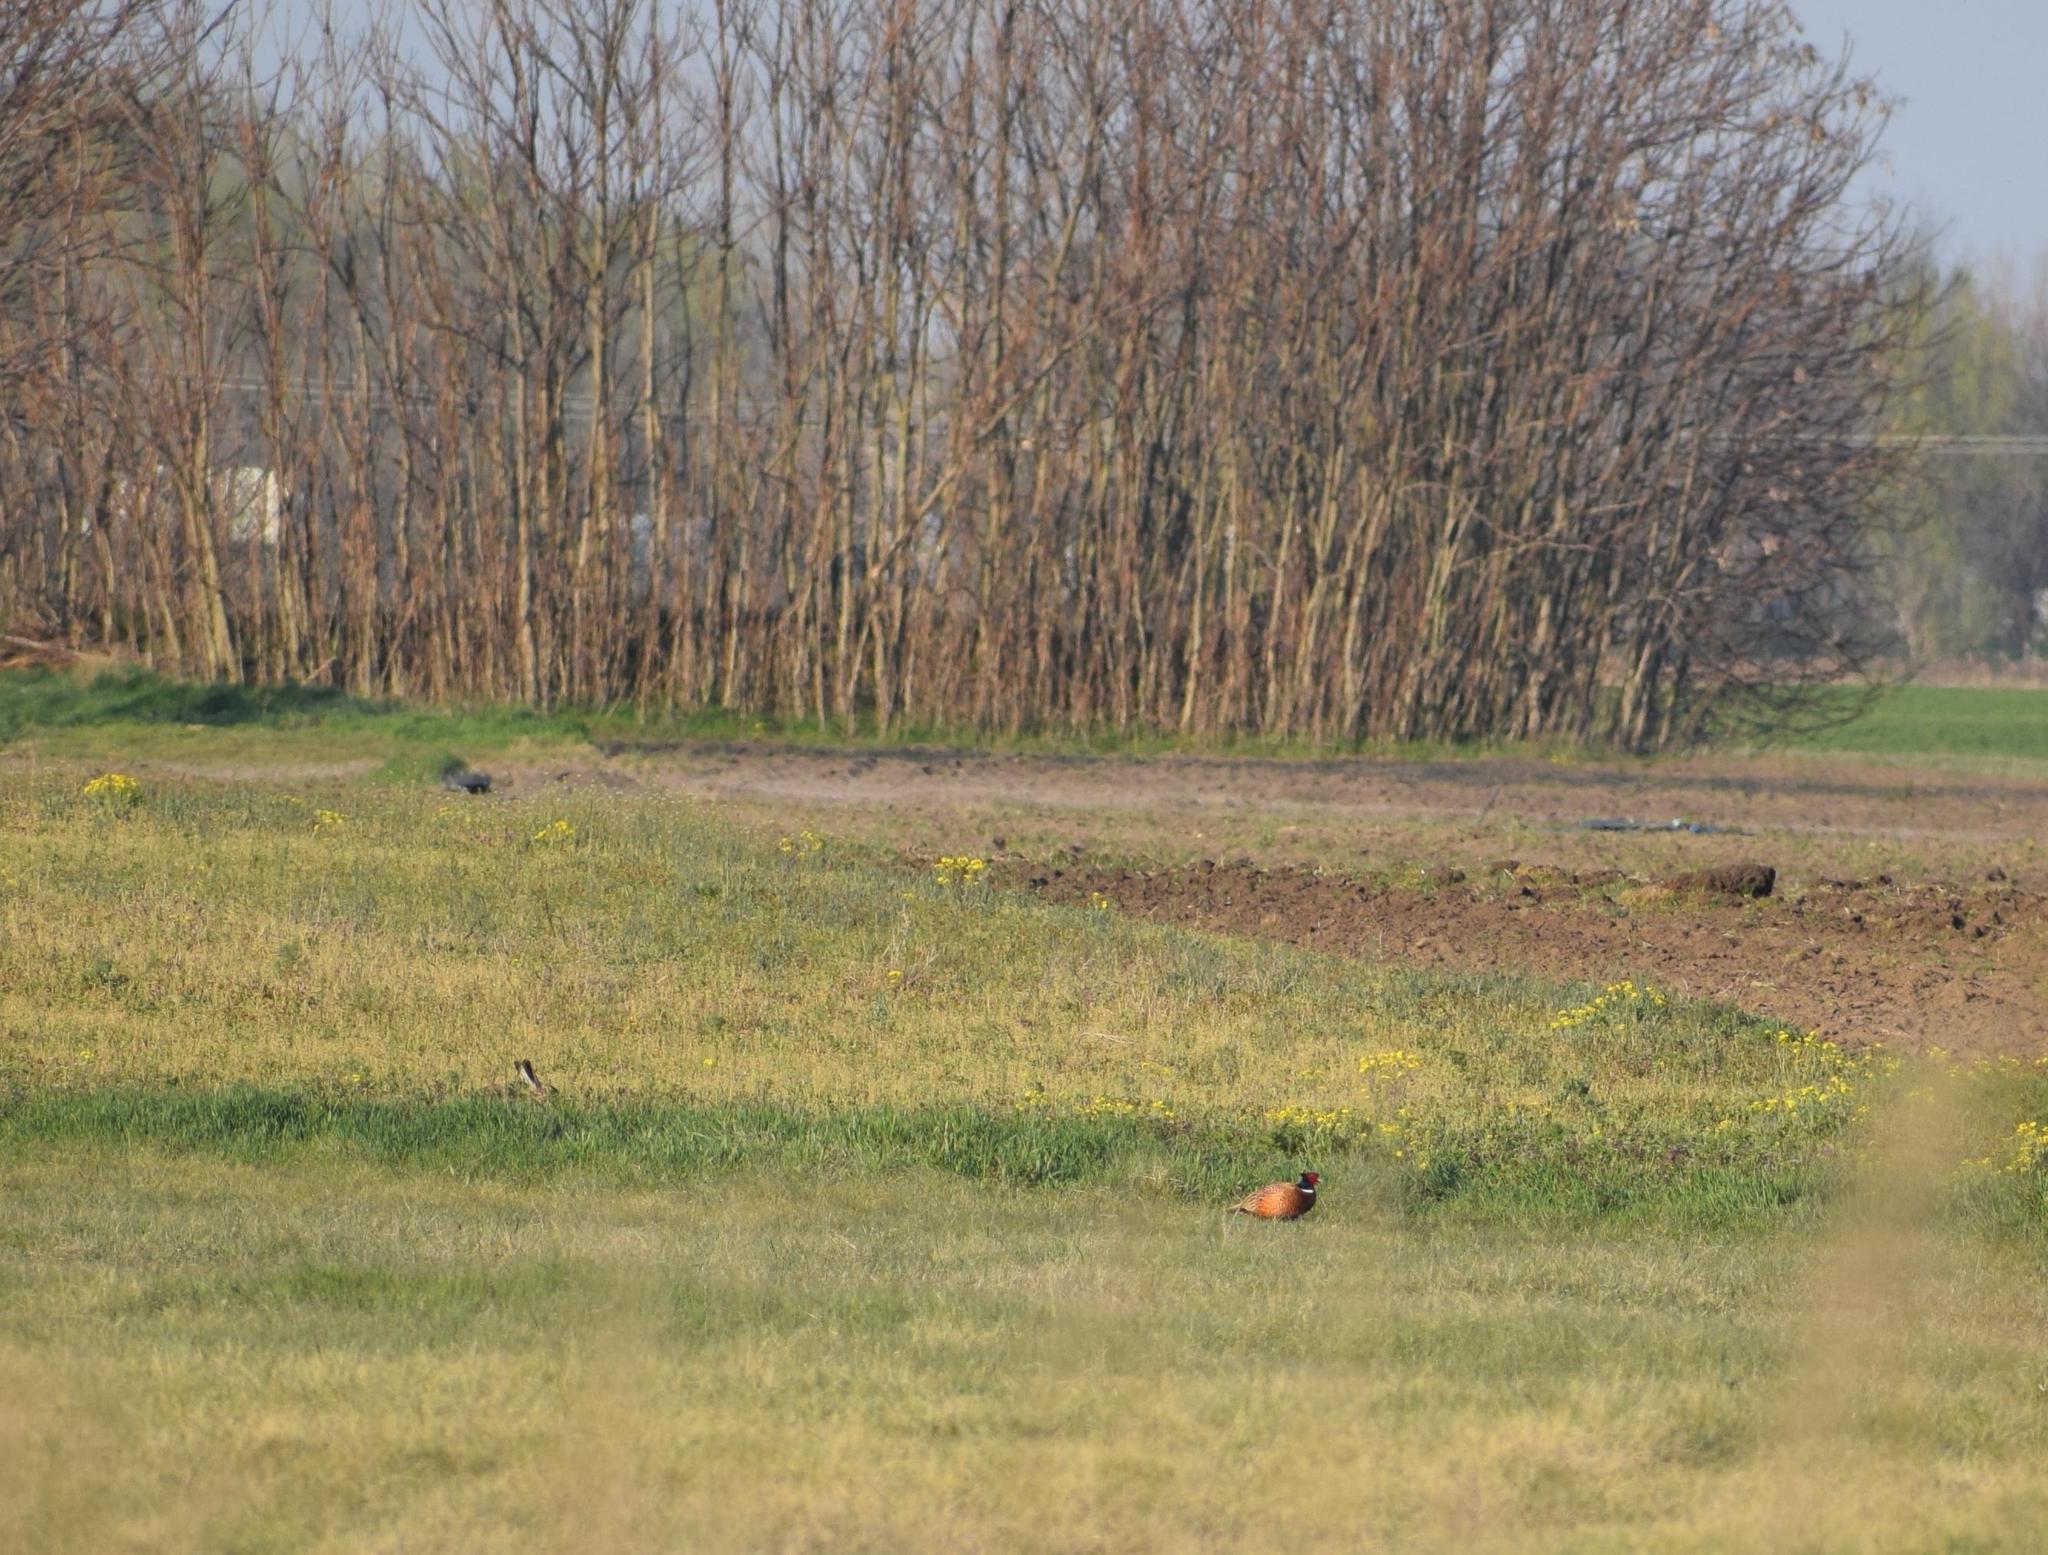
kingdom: Animalia
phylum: Chordata
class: Aves
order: Galliformes
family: Phasianidae
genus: Phasianus
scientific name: Phasianus colchicus
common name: Common pheasant
